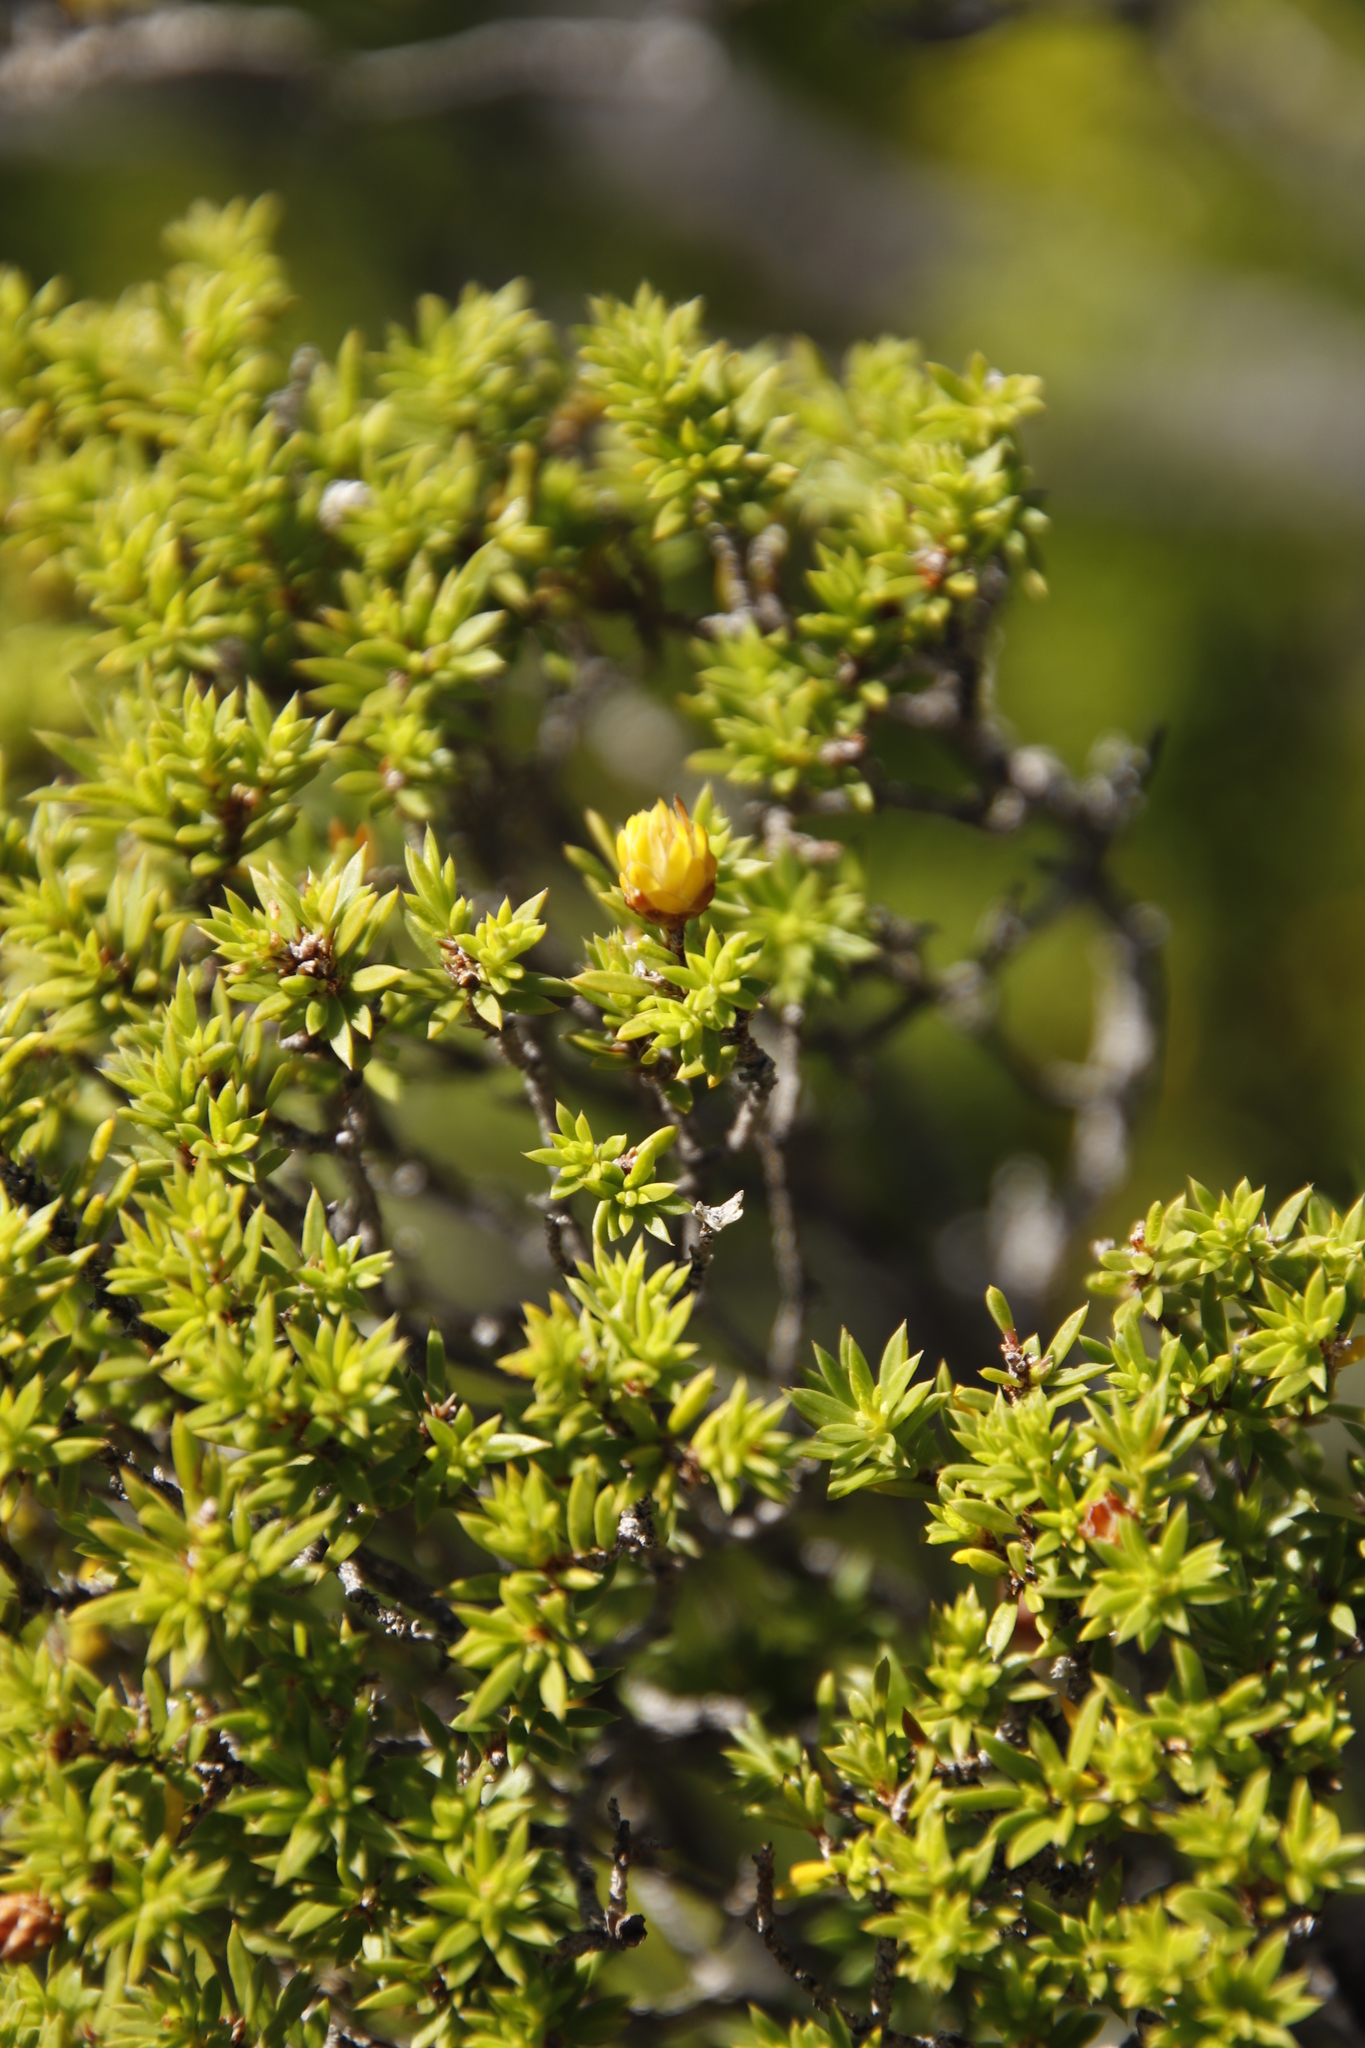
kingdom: Plantae
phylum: Tracheophyta
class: Magnoliopsida
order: Sapindales
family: Rutaceae
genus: Coleonema
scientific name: Coleonema album
